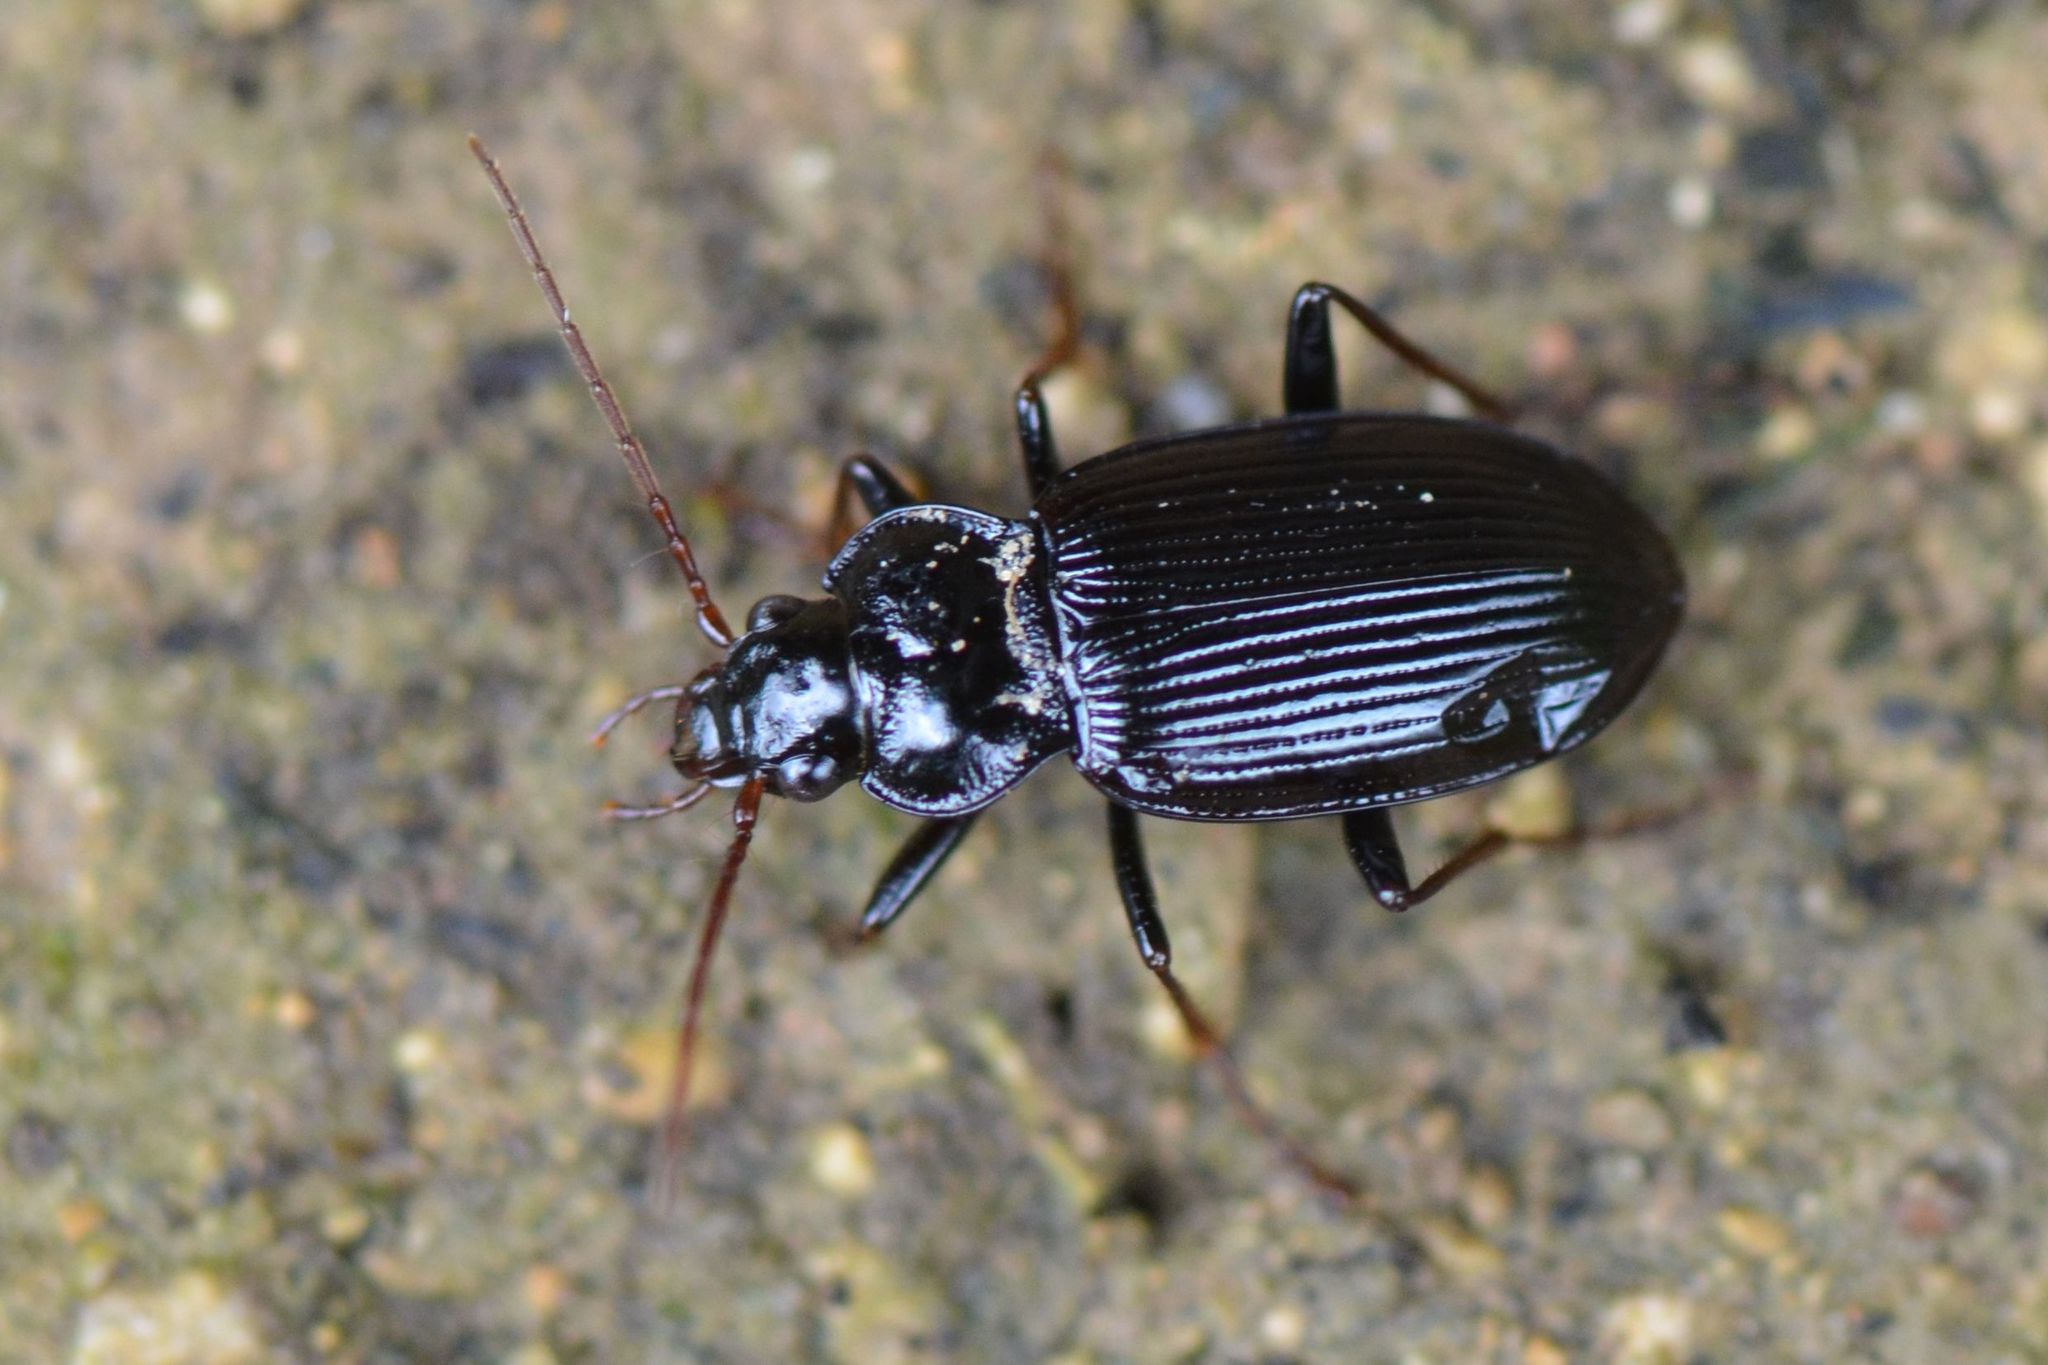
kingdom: Animalia
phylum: Arthropoda
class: Insecta
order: Coleoptera
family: Carabidae
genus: Nebria
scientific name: Nebria brevicollis
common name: Short-necked gazelle beetle
